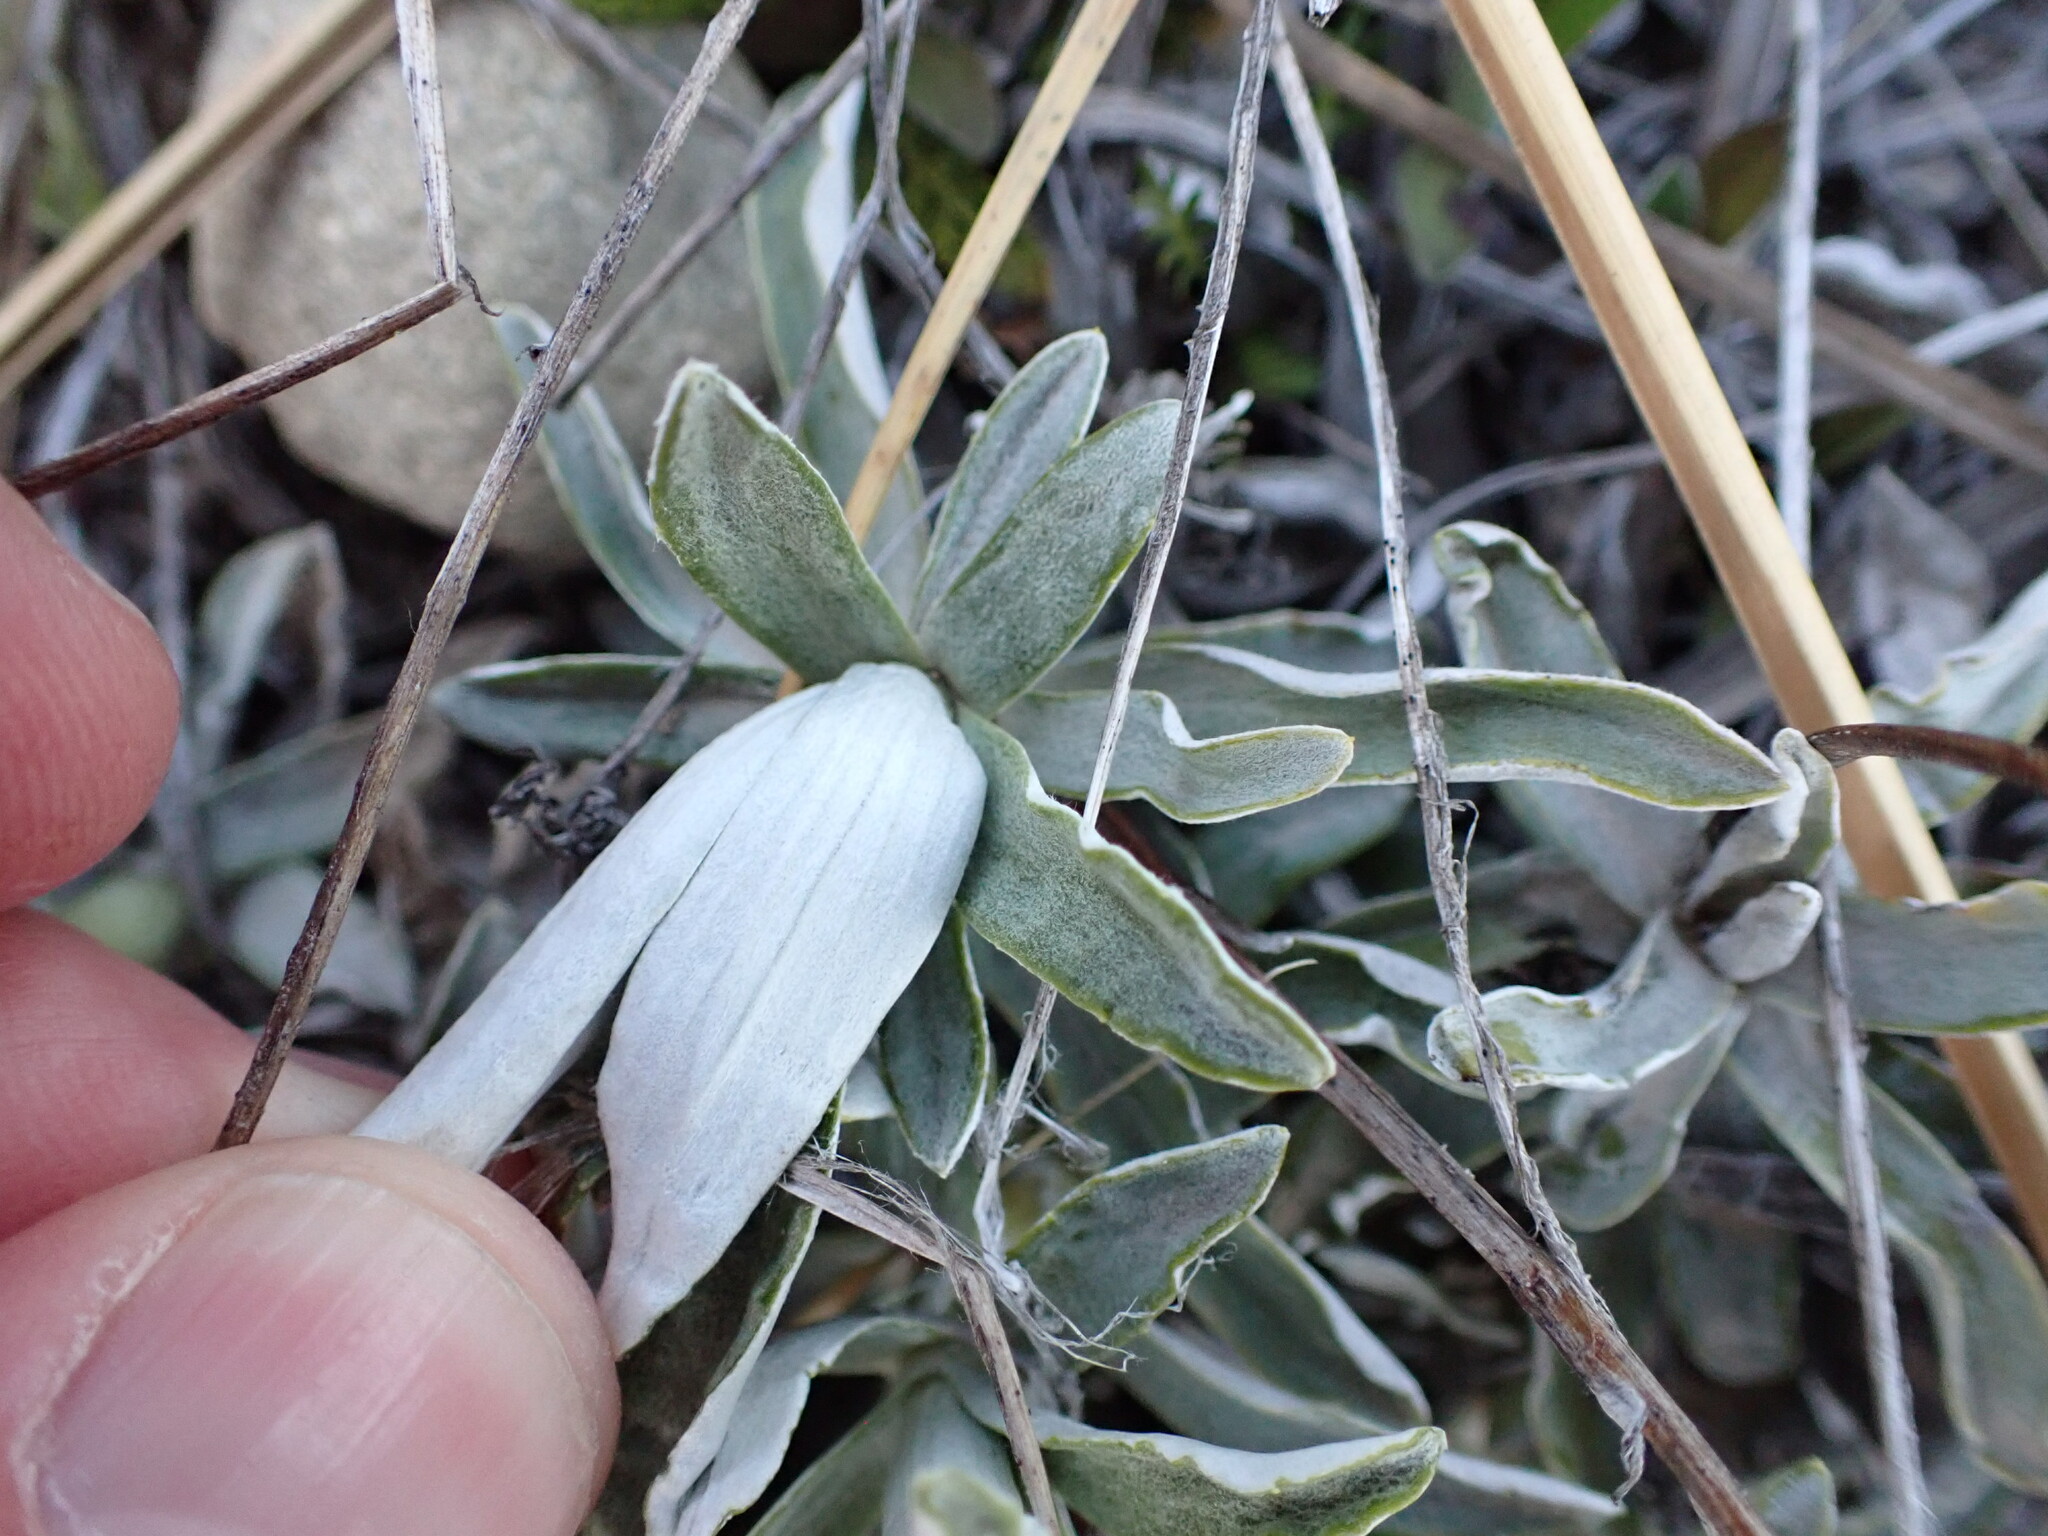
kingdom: Plantae
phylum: Tracheophyta
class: Magnoliopsida
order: Asterales
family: Asteraceae
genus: Celmisia
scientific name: Celmisia angustifolia
